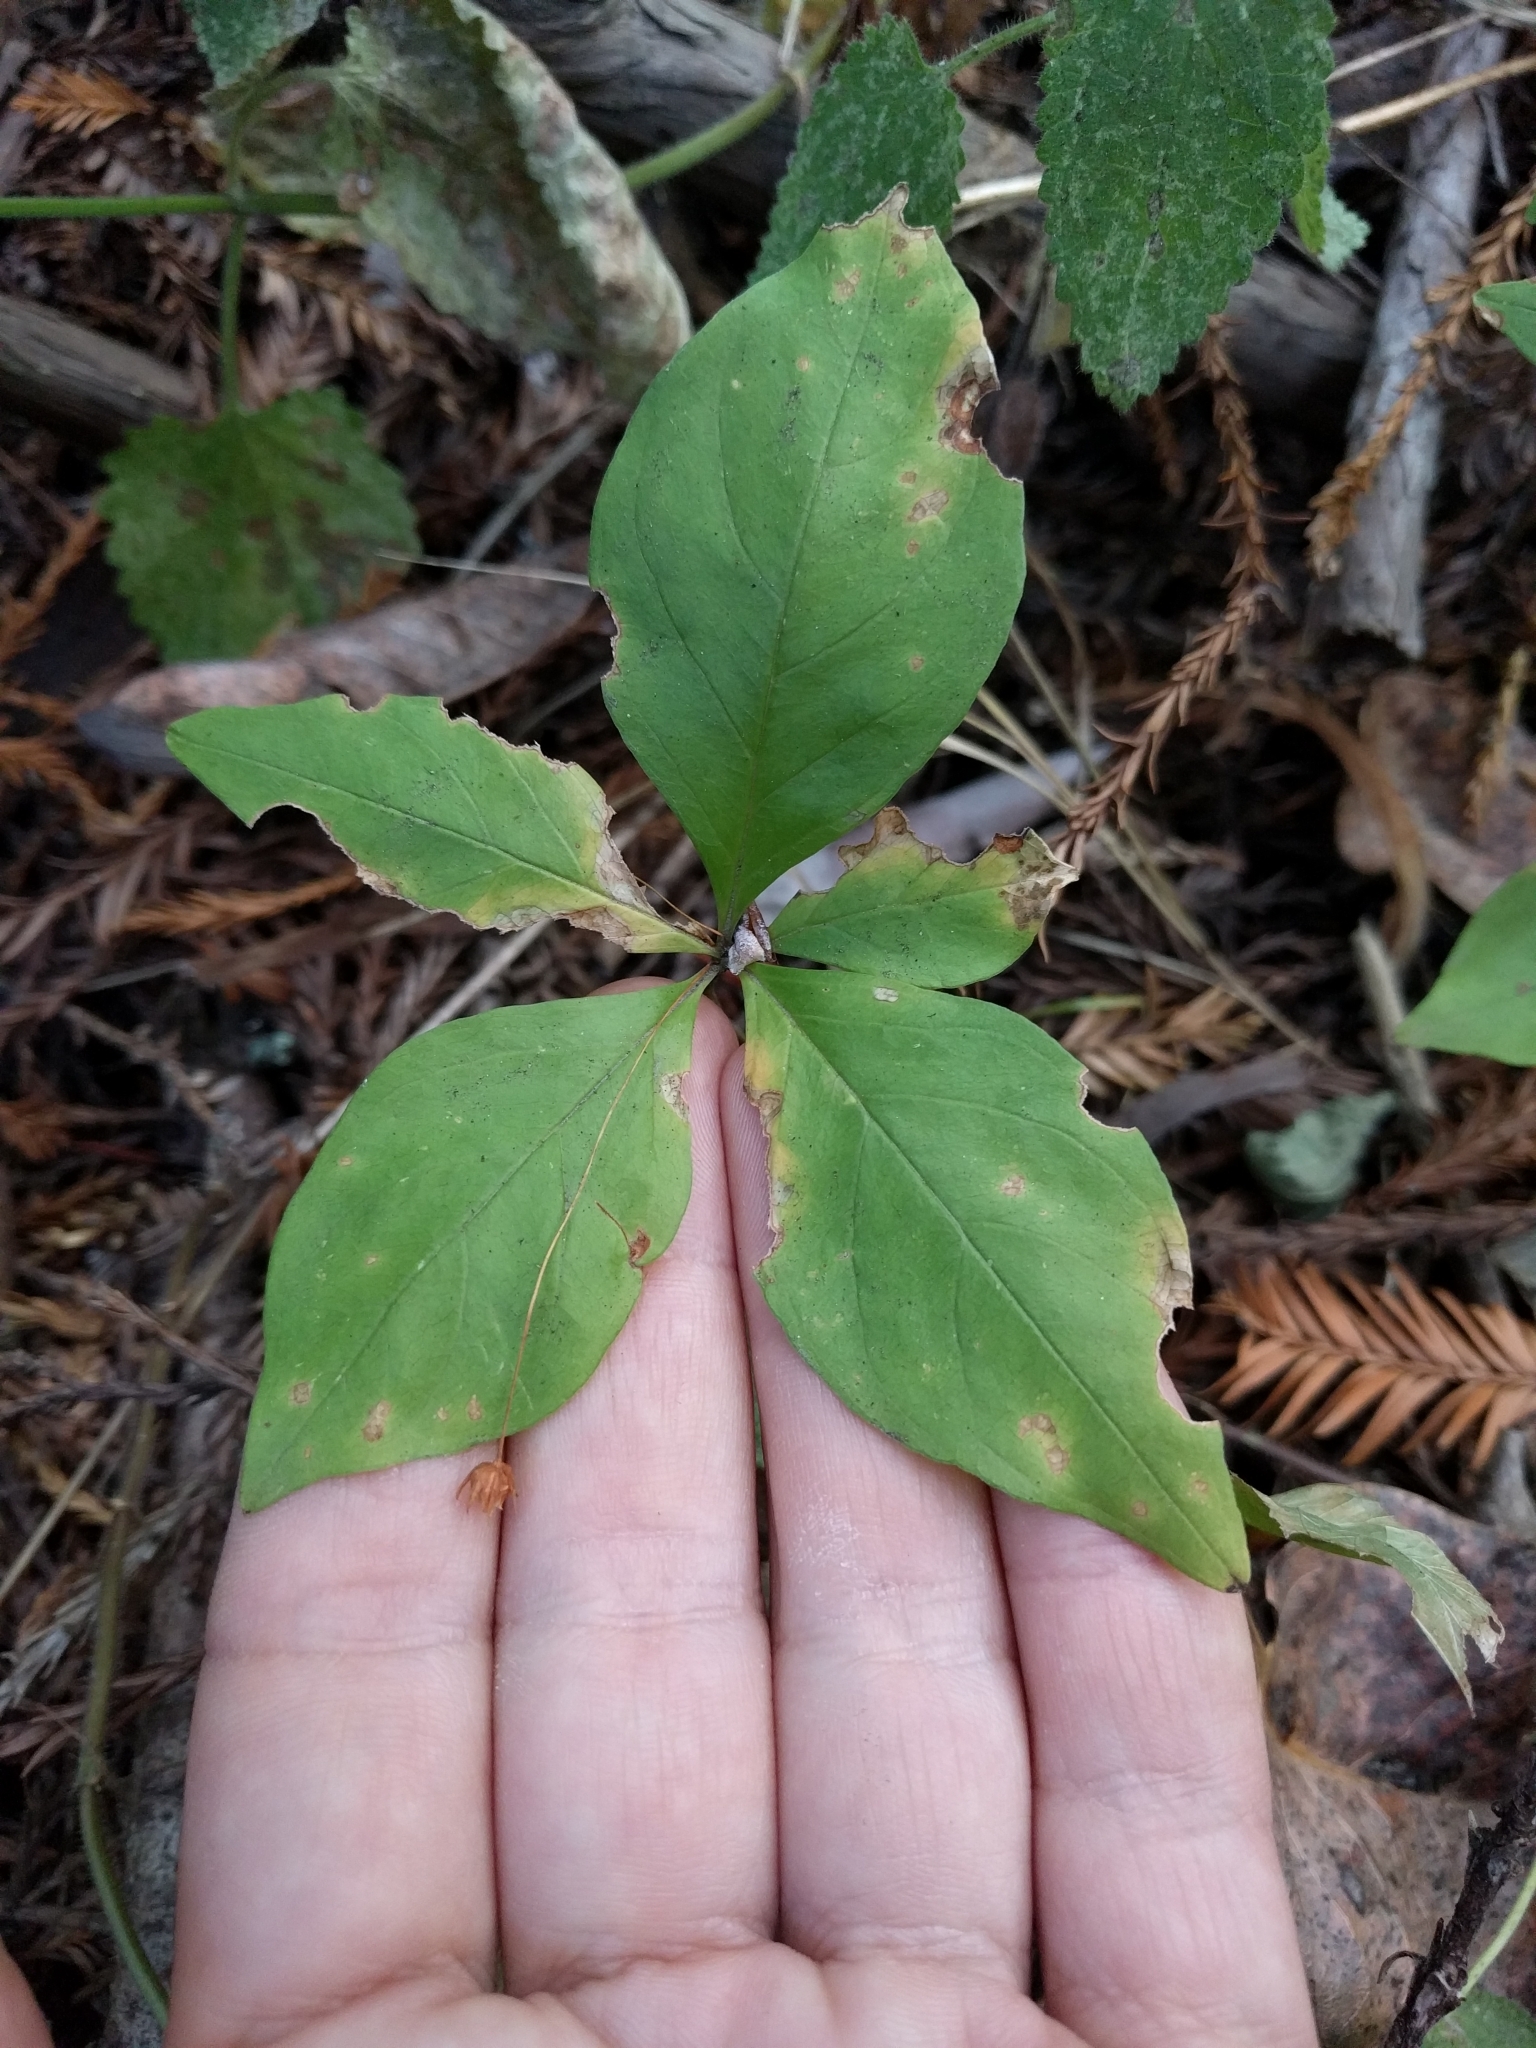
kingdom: Plantae
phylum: Tracheophyta
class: Magnoliopsida
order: Ericales
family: Primulaceae
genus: Lysimachia
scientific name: Lysimachia latifolia
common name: Pacific starflower
